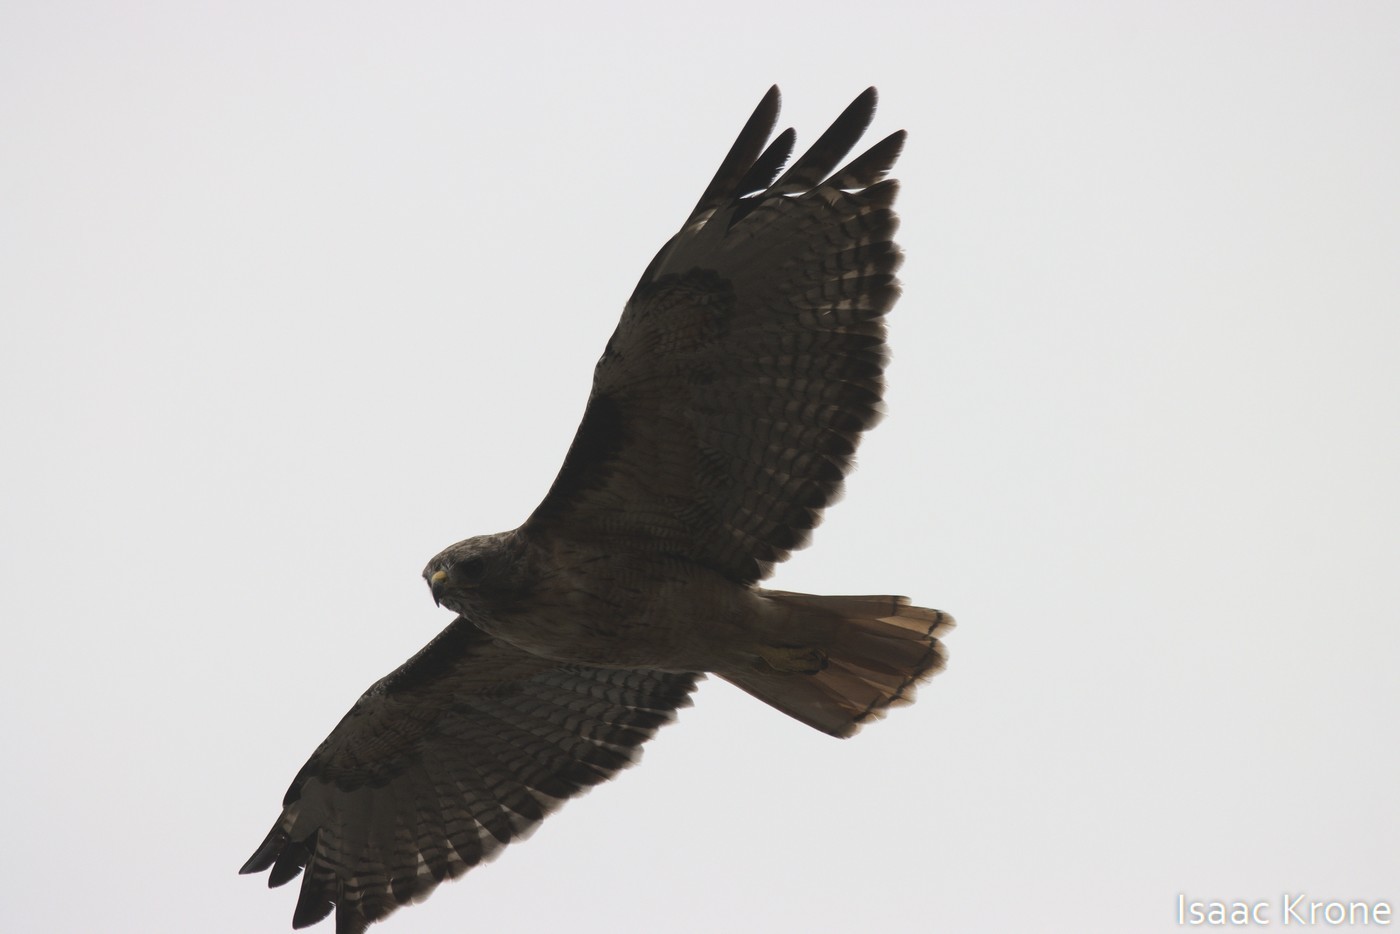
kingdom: Animalia
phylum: Chordata
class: Aves
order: Accipitriformes
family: Accipitridae
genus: Buteo
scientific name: Buteo jamaicensis
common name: Red-tailed hawk
